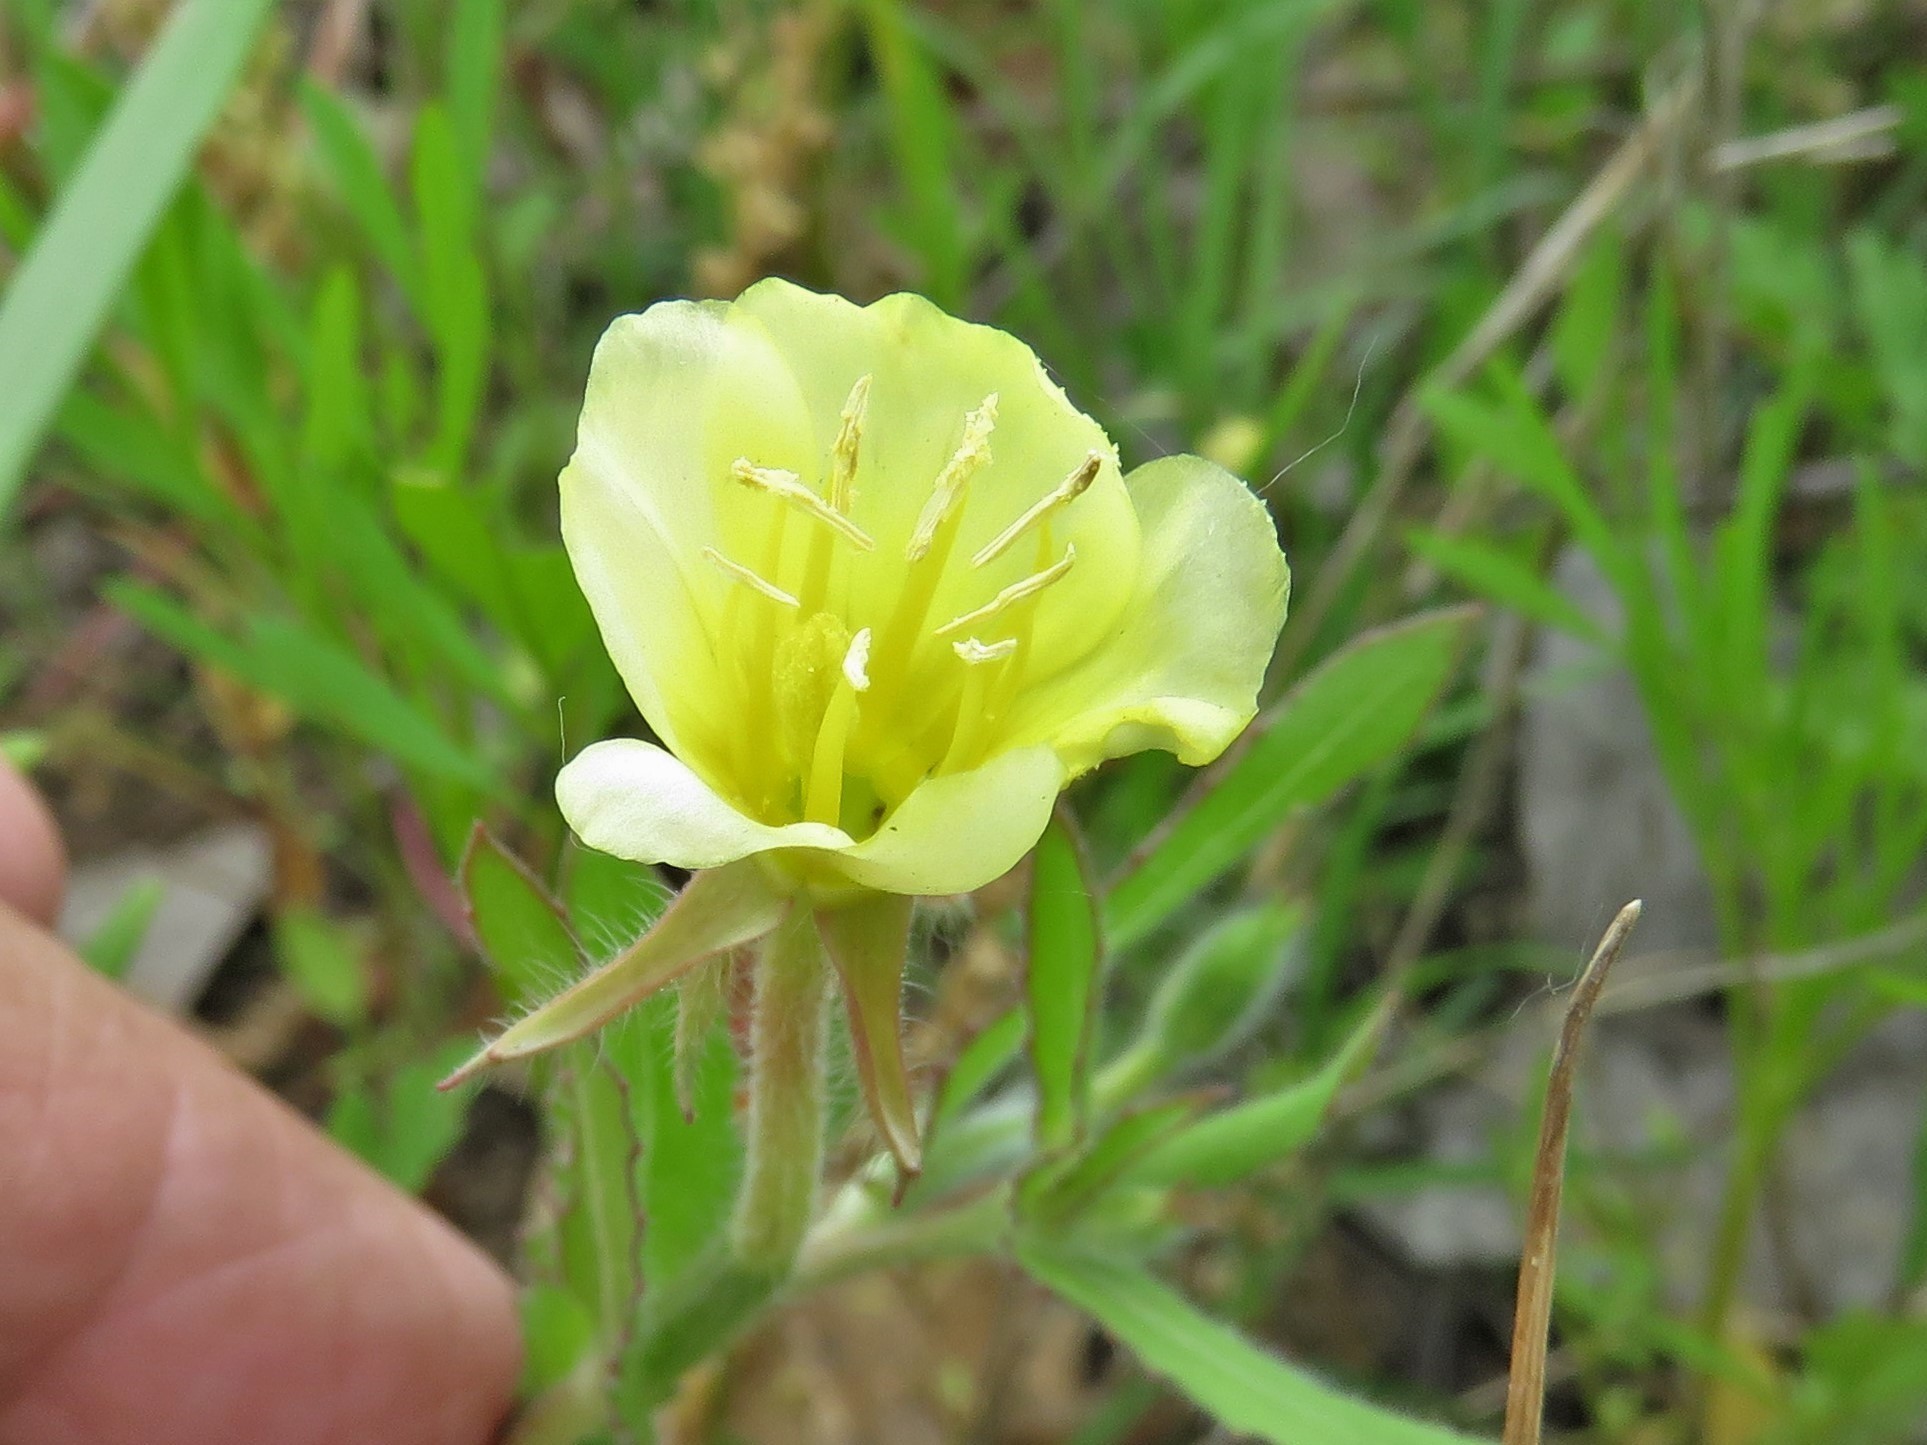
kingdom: Plantae
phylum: Tracheophyta
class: Magnoliopsida
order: Myrtales
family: Onagraceae
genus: Oenothera
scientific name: Oenothera laciniata
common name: Cut-leaved evening-primrose
